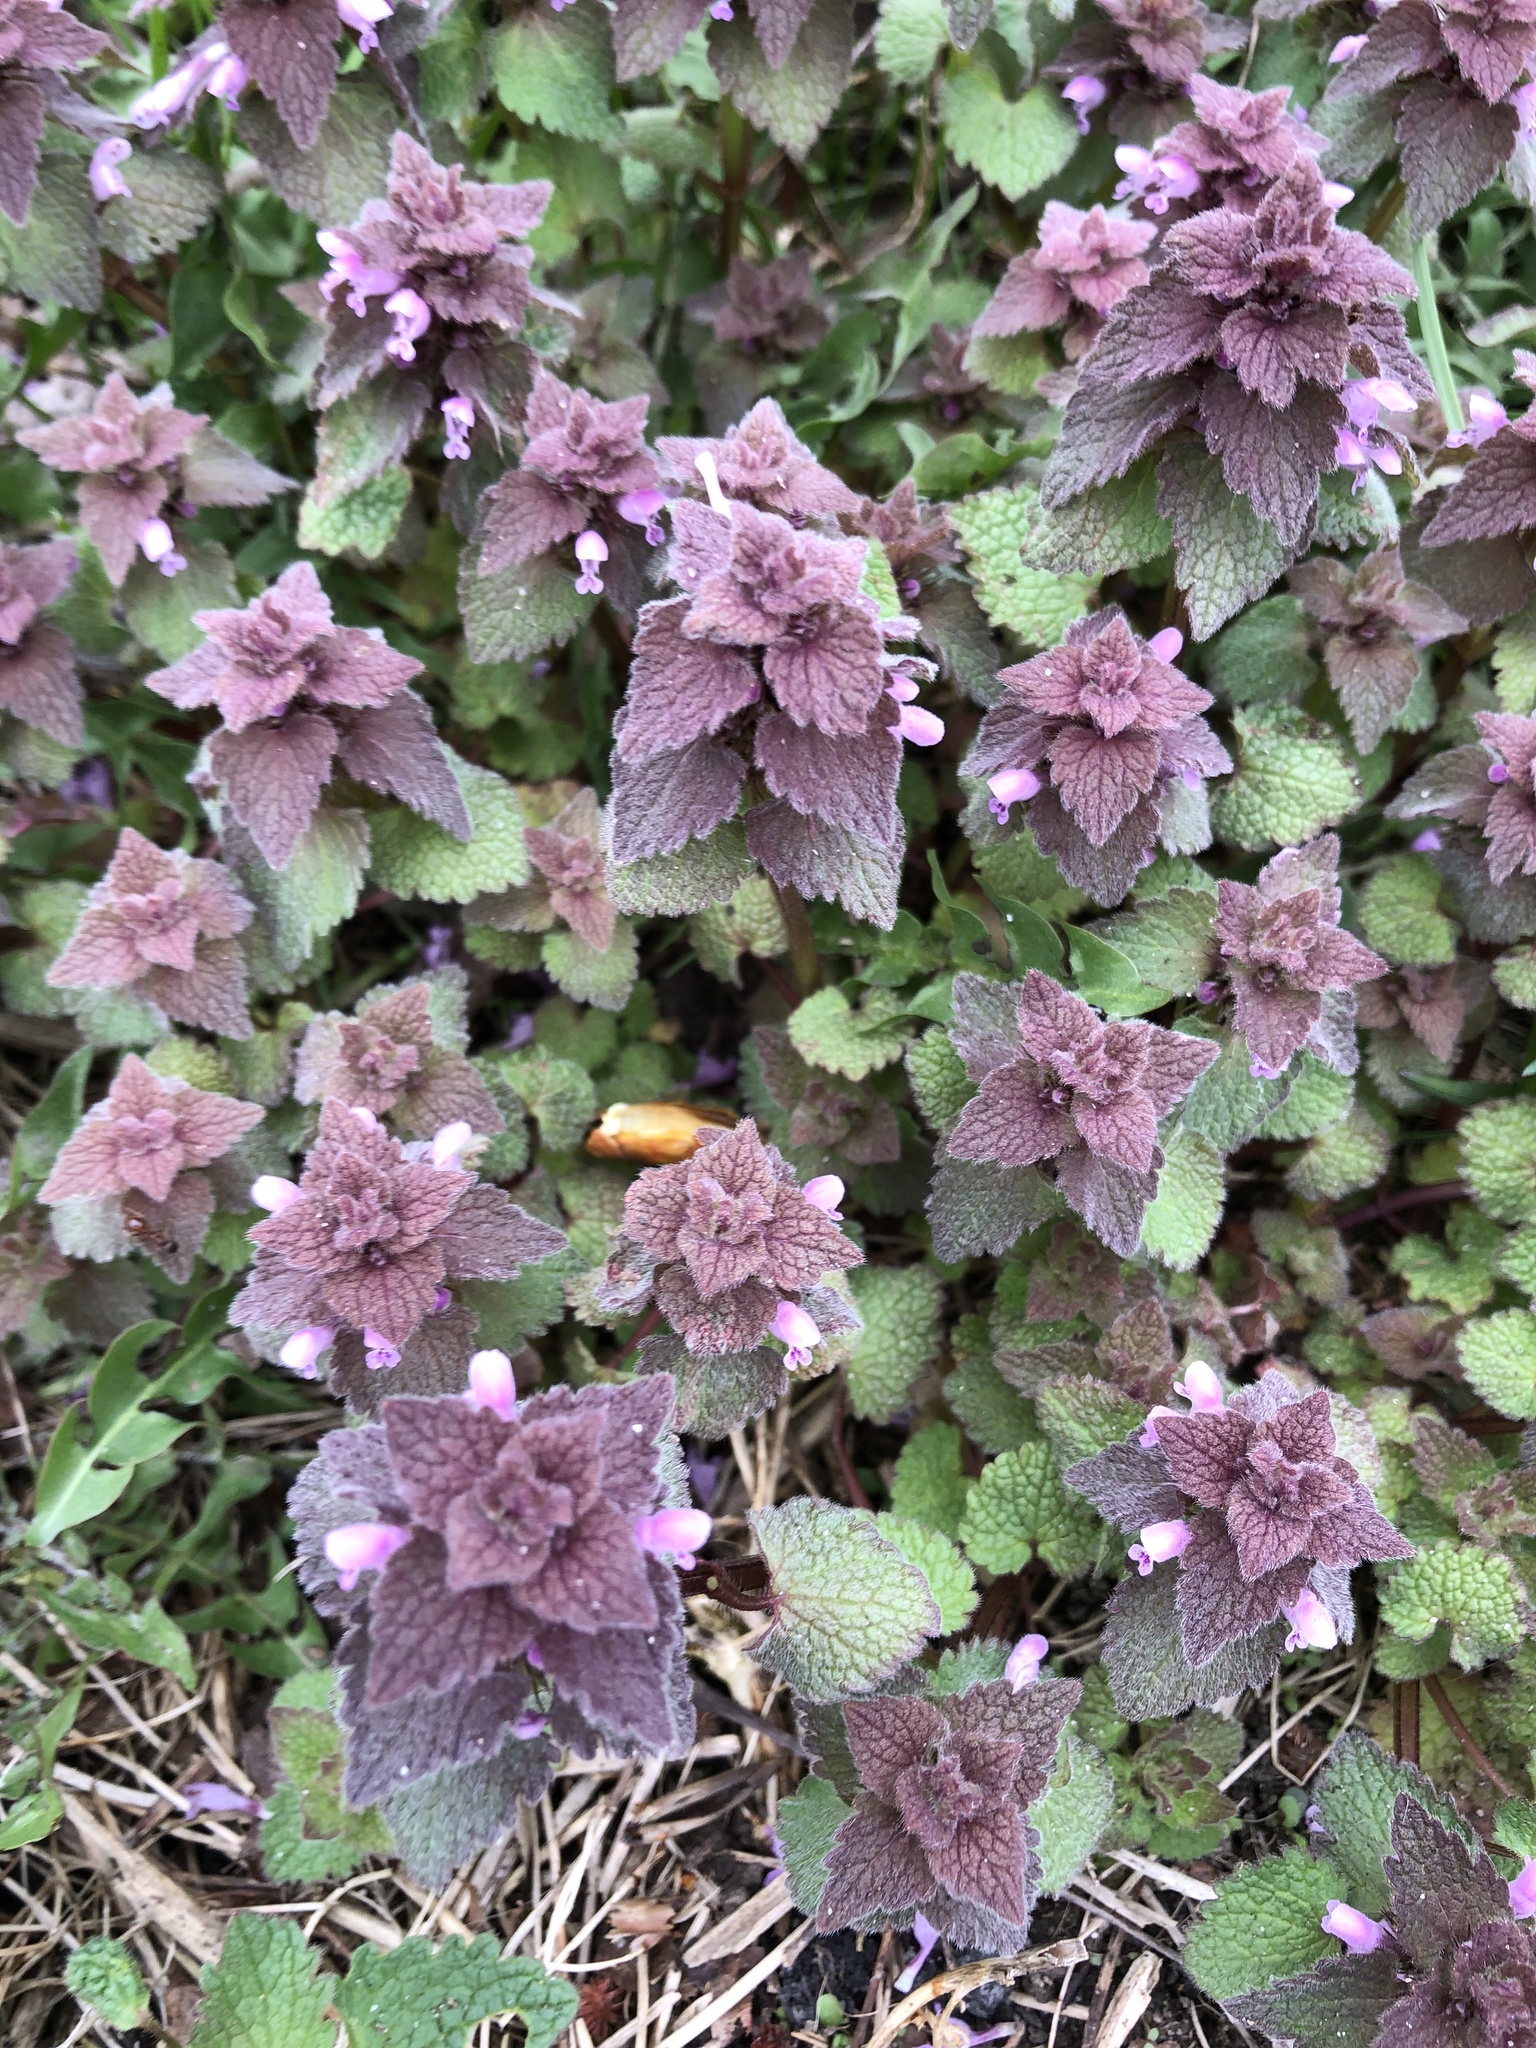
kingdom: Plantae
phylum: Tracheophyta
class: Magnoliopsida
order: Lamiales
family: Lamiaceae
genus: Lamium
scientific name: Lamium purpureum
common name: Red dead-nettle
